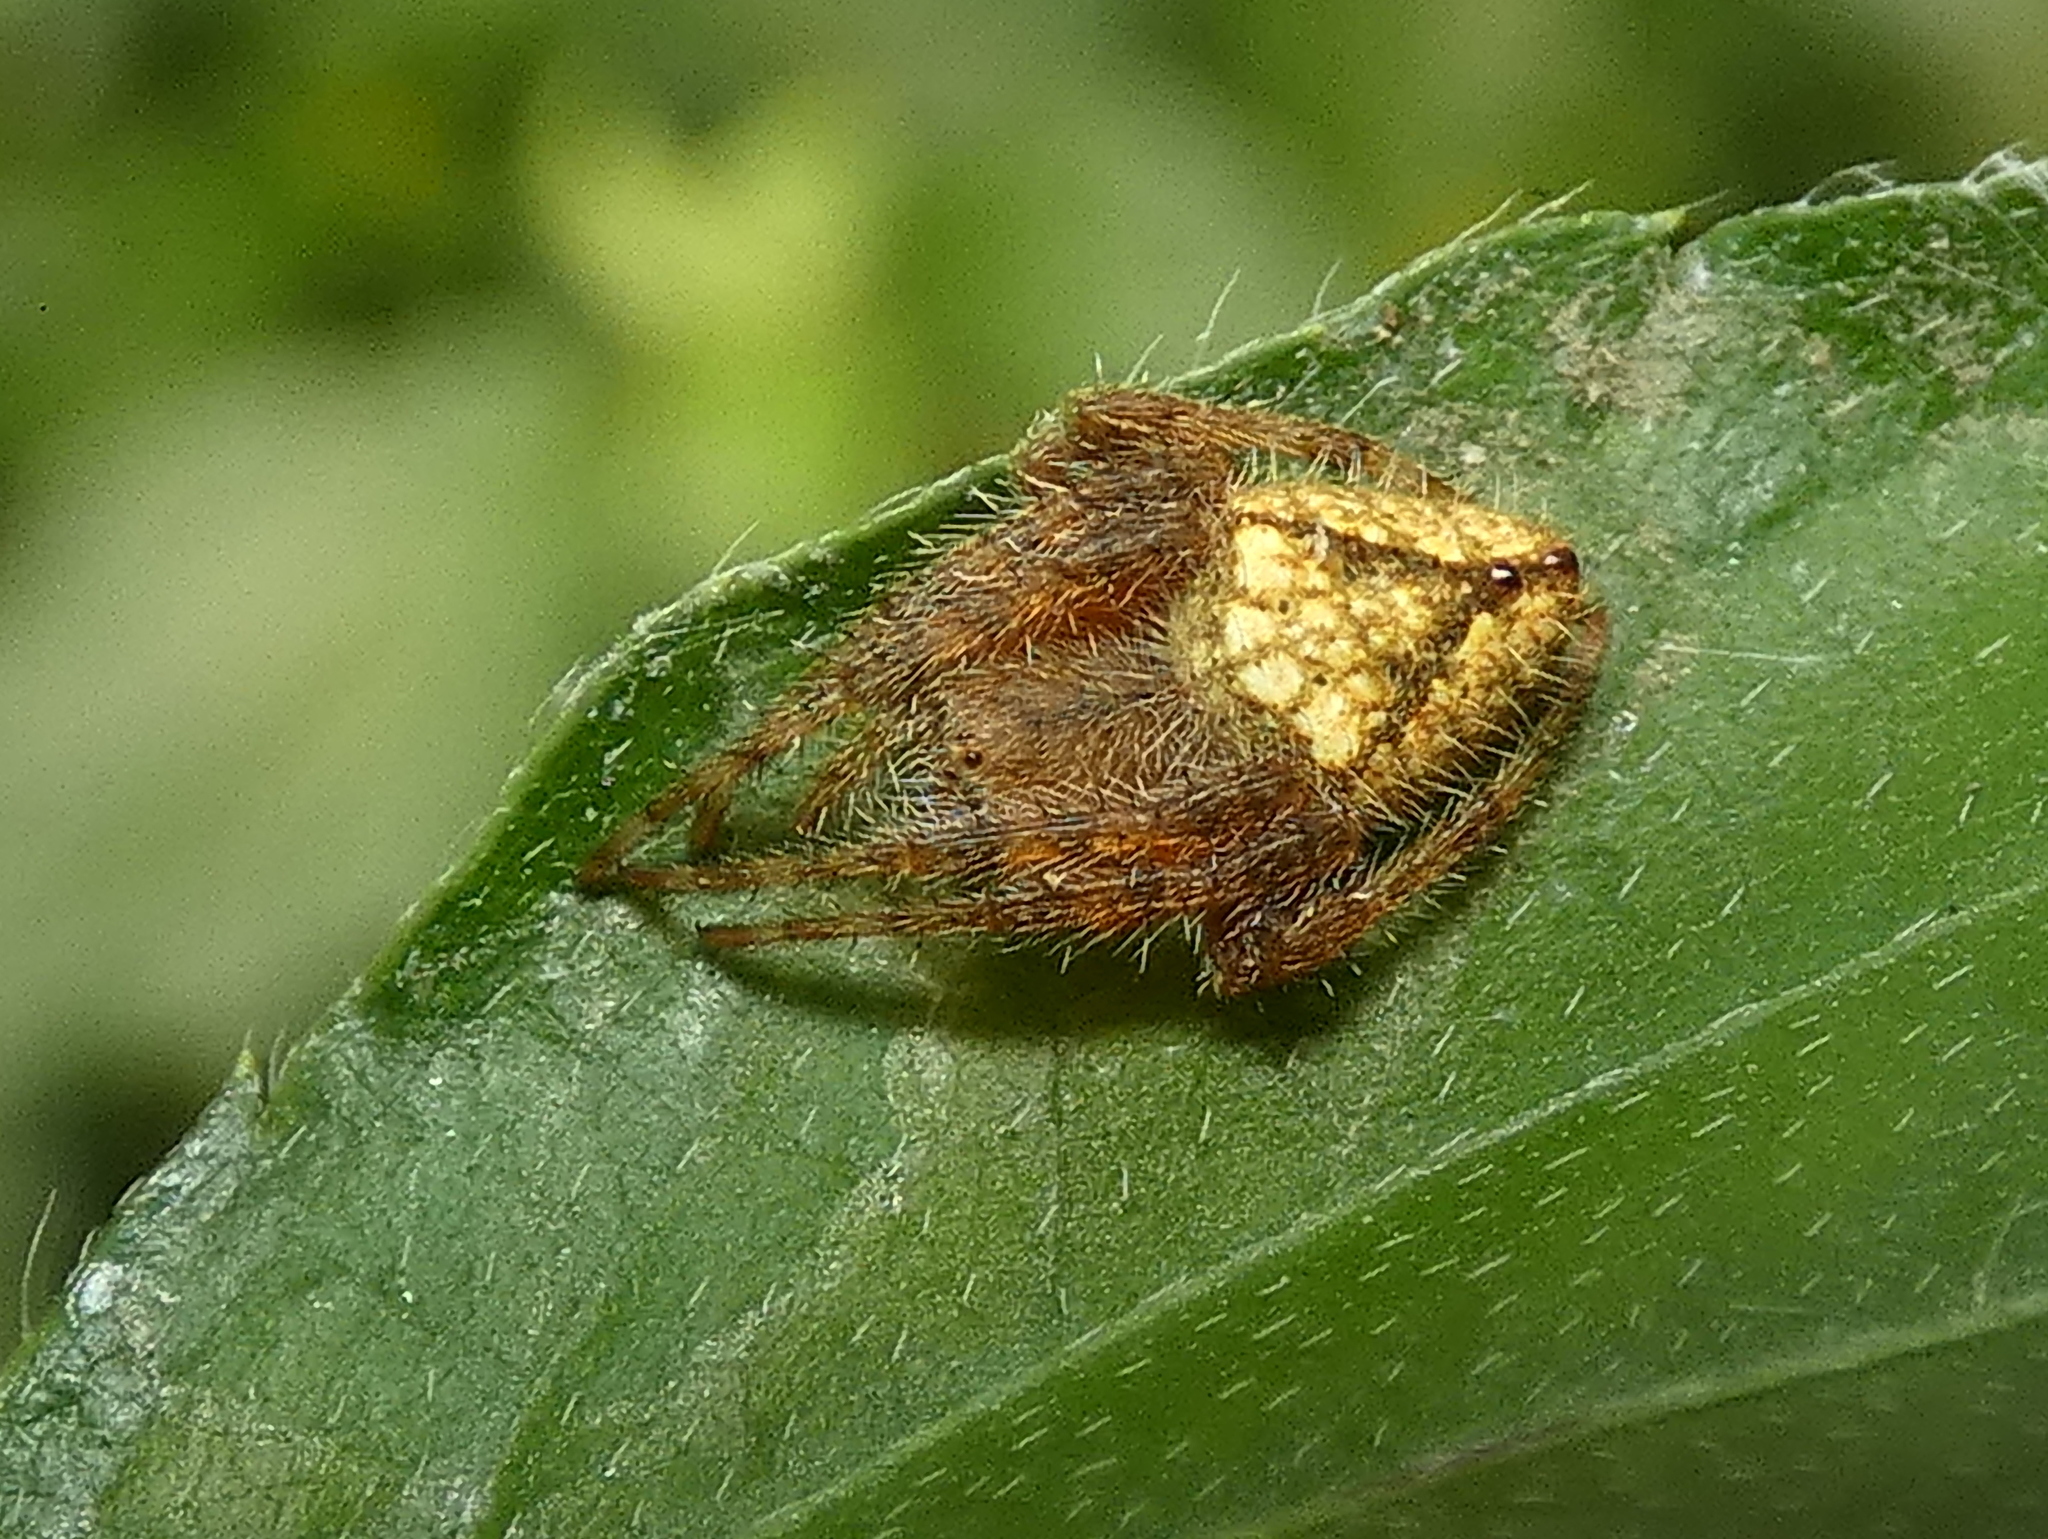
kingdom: Animalia
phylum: Arthropoda
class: Arachnida
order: Araneae
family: Araneidae
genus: Eriophora
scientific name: Eriophora edax
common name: Orb weavers
